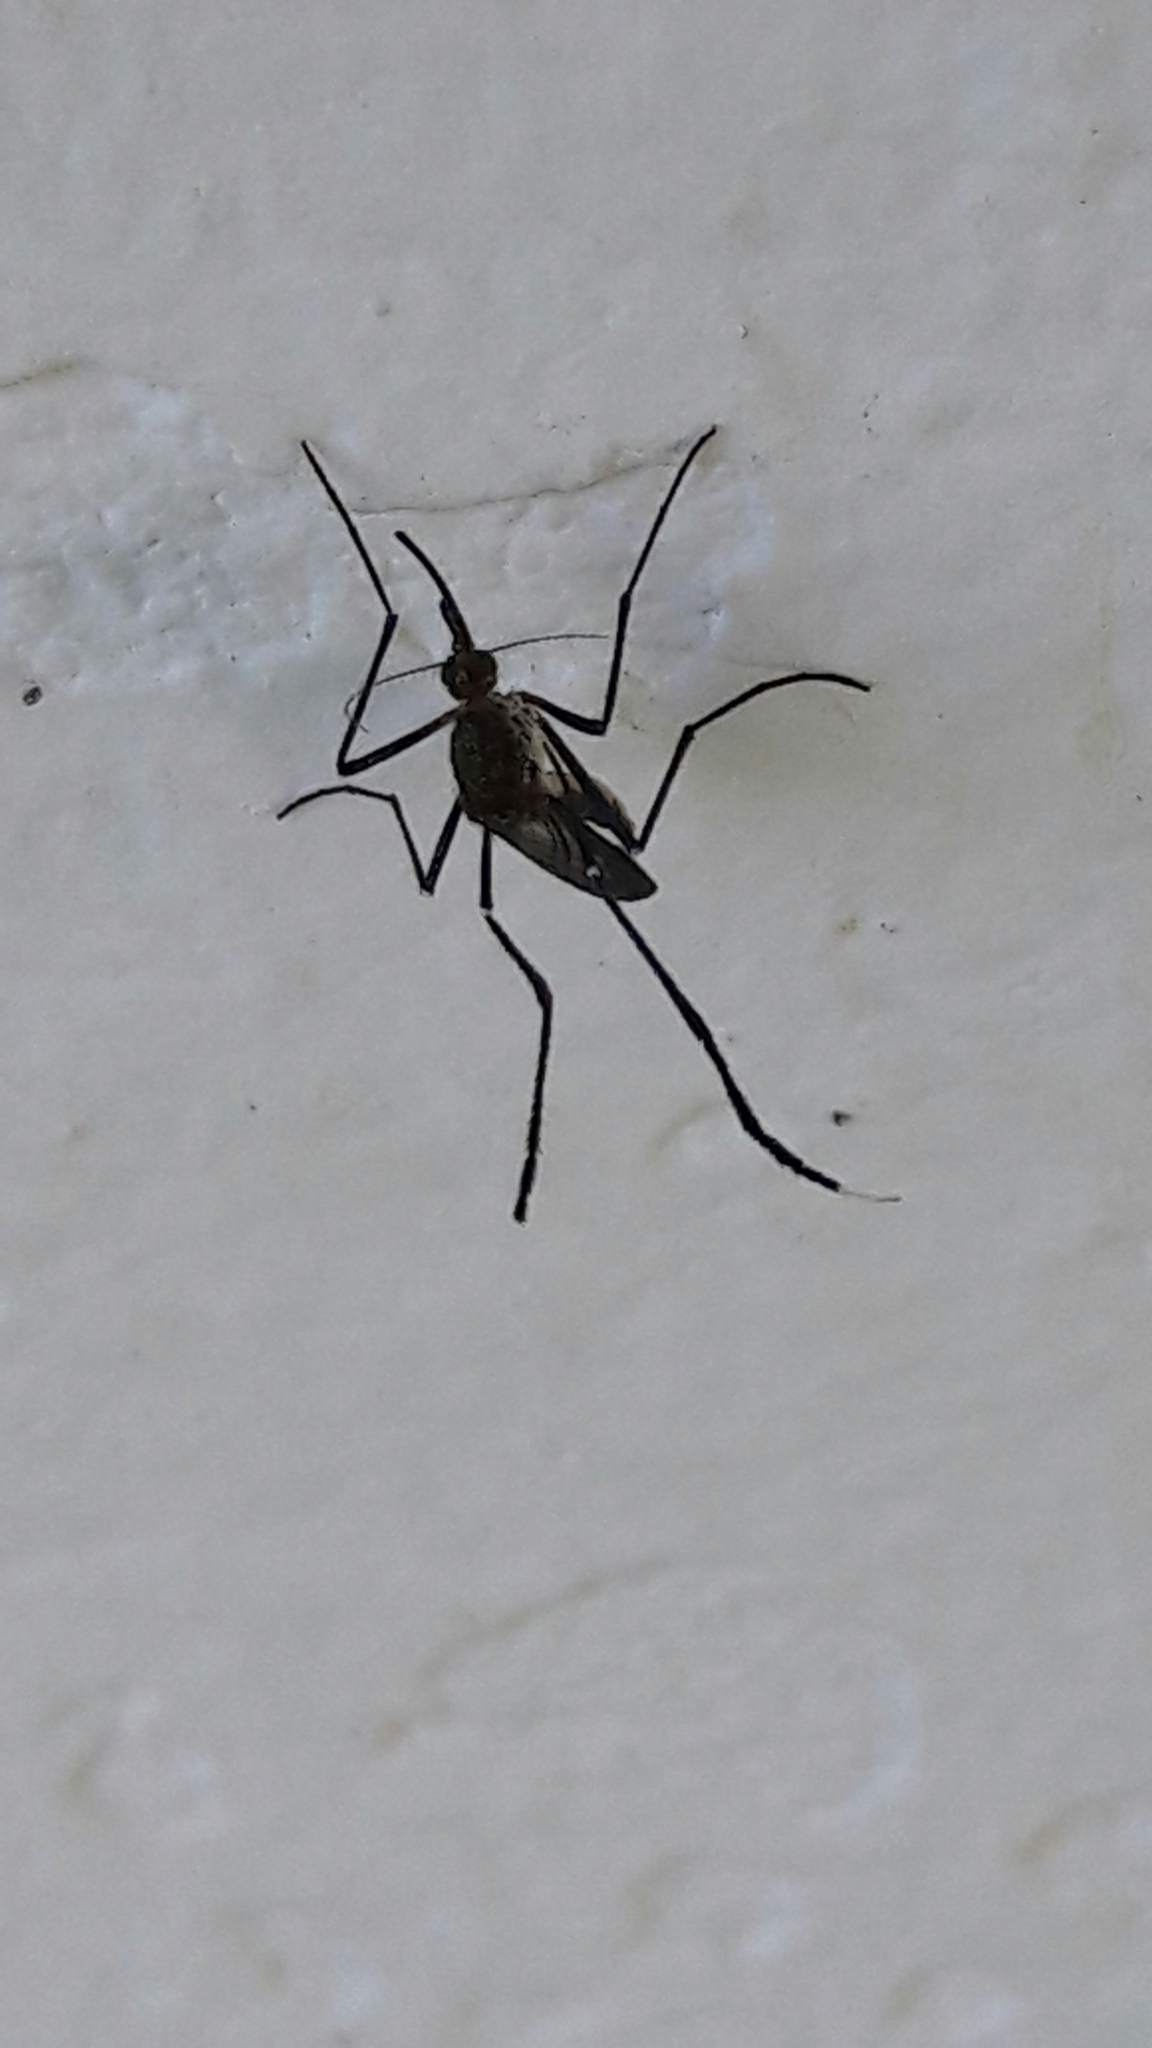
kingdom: Animalia
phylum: Arthropoda
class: Insecta
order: Diptera
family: Culicidae
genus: Psorophora
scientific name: Psorophora ferox
